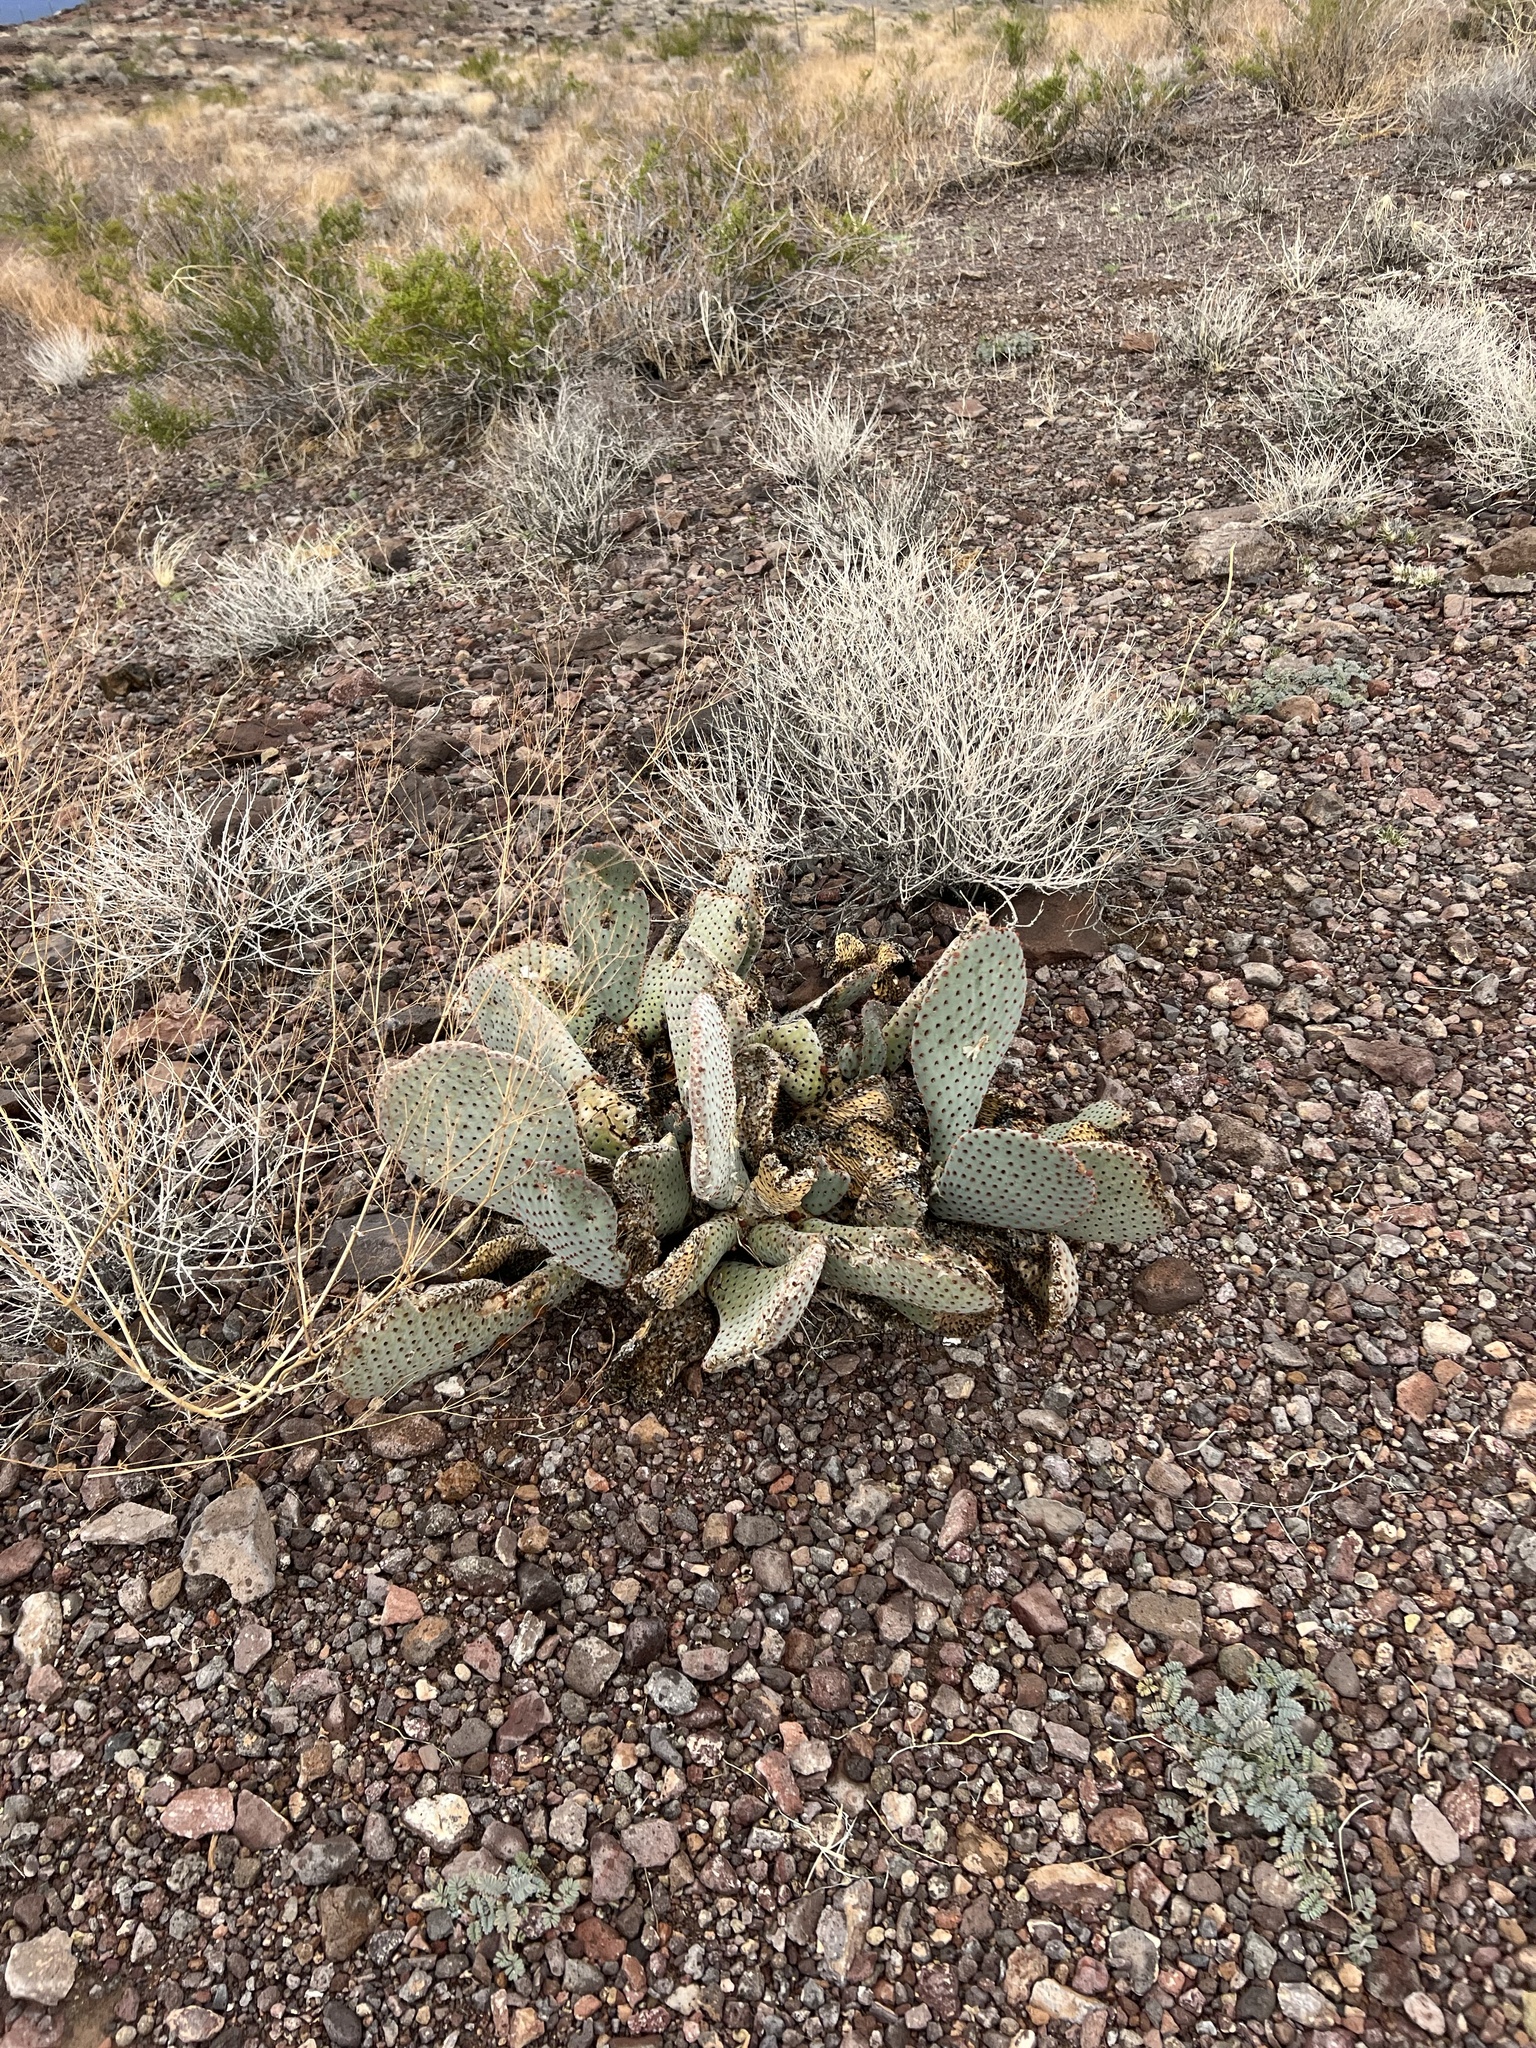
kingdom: Plantae
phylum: Tracheophyta
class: Magnoliopsida
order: Caryophyllales
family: Cactaceae
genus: Opuntia
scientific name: Opuntia basilaris
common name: Beavertail prickly-pear
